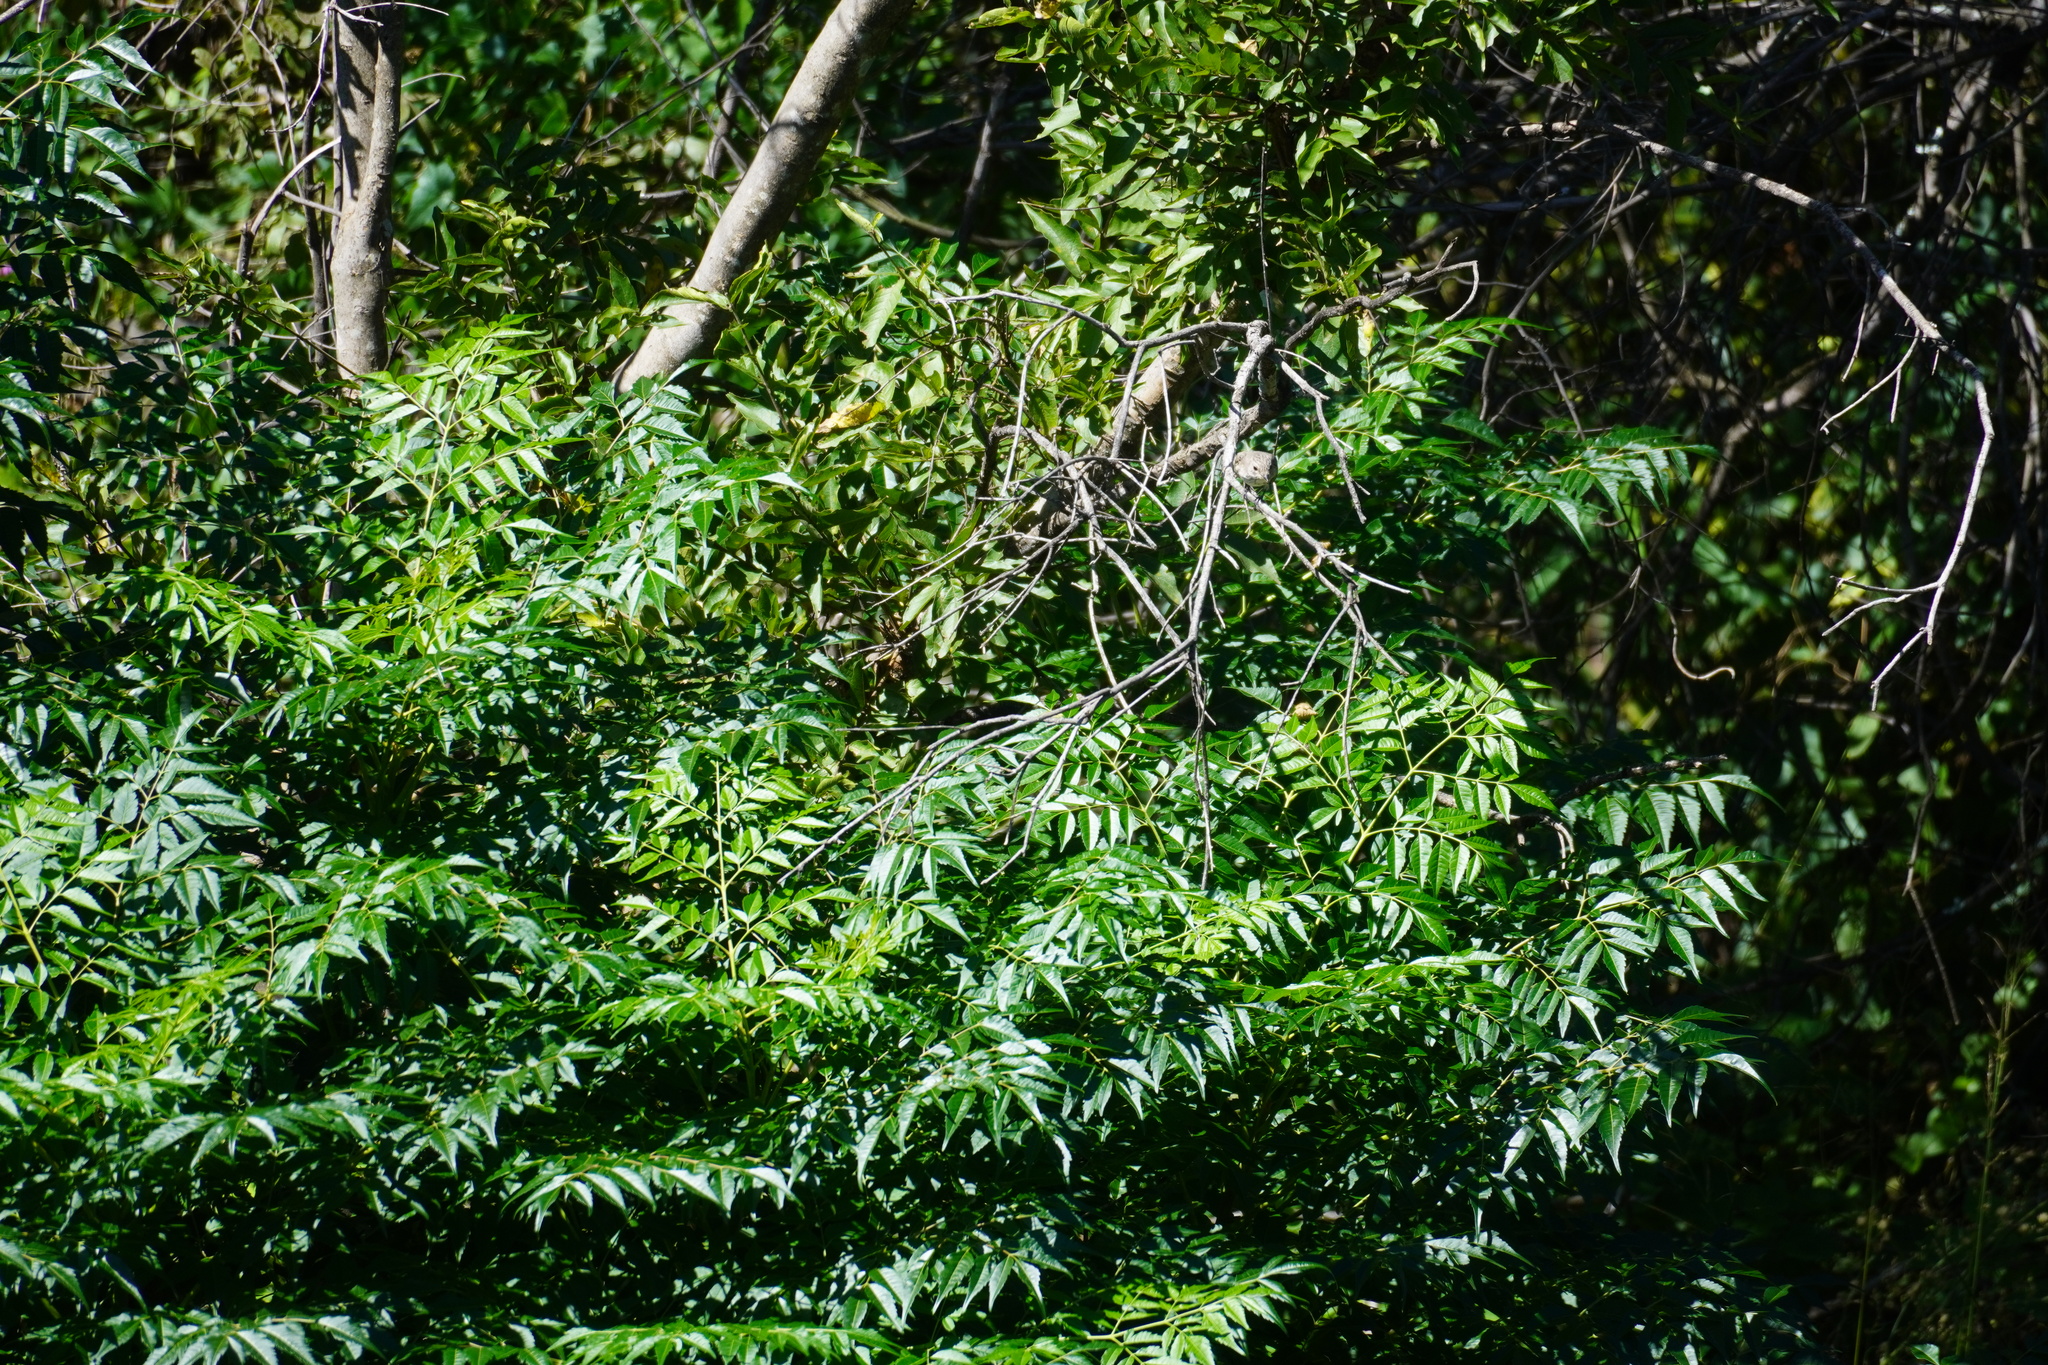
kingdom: Plantae
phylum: Tracheophyta
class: Magnoliopsida
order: Sapindales
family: Meliaceae
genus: Melia
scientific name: Melia azedarach
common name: Chinaberrytree
